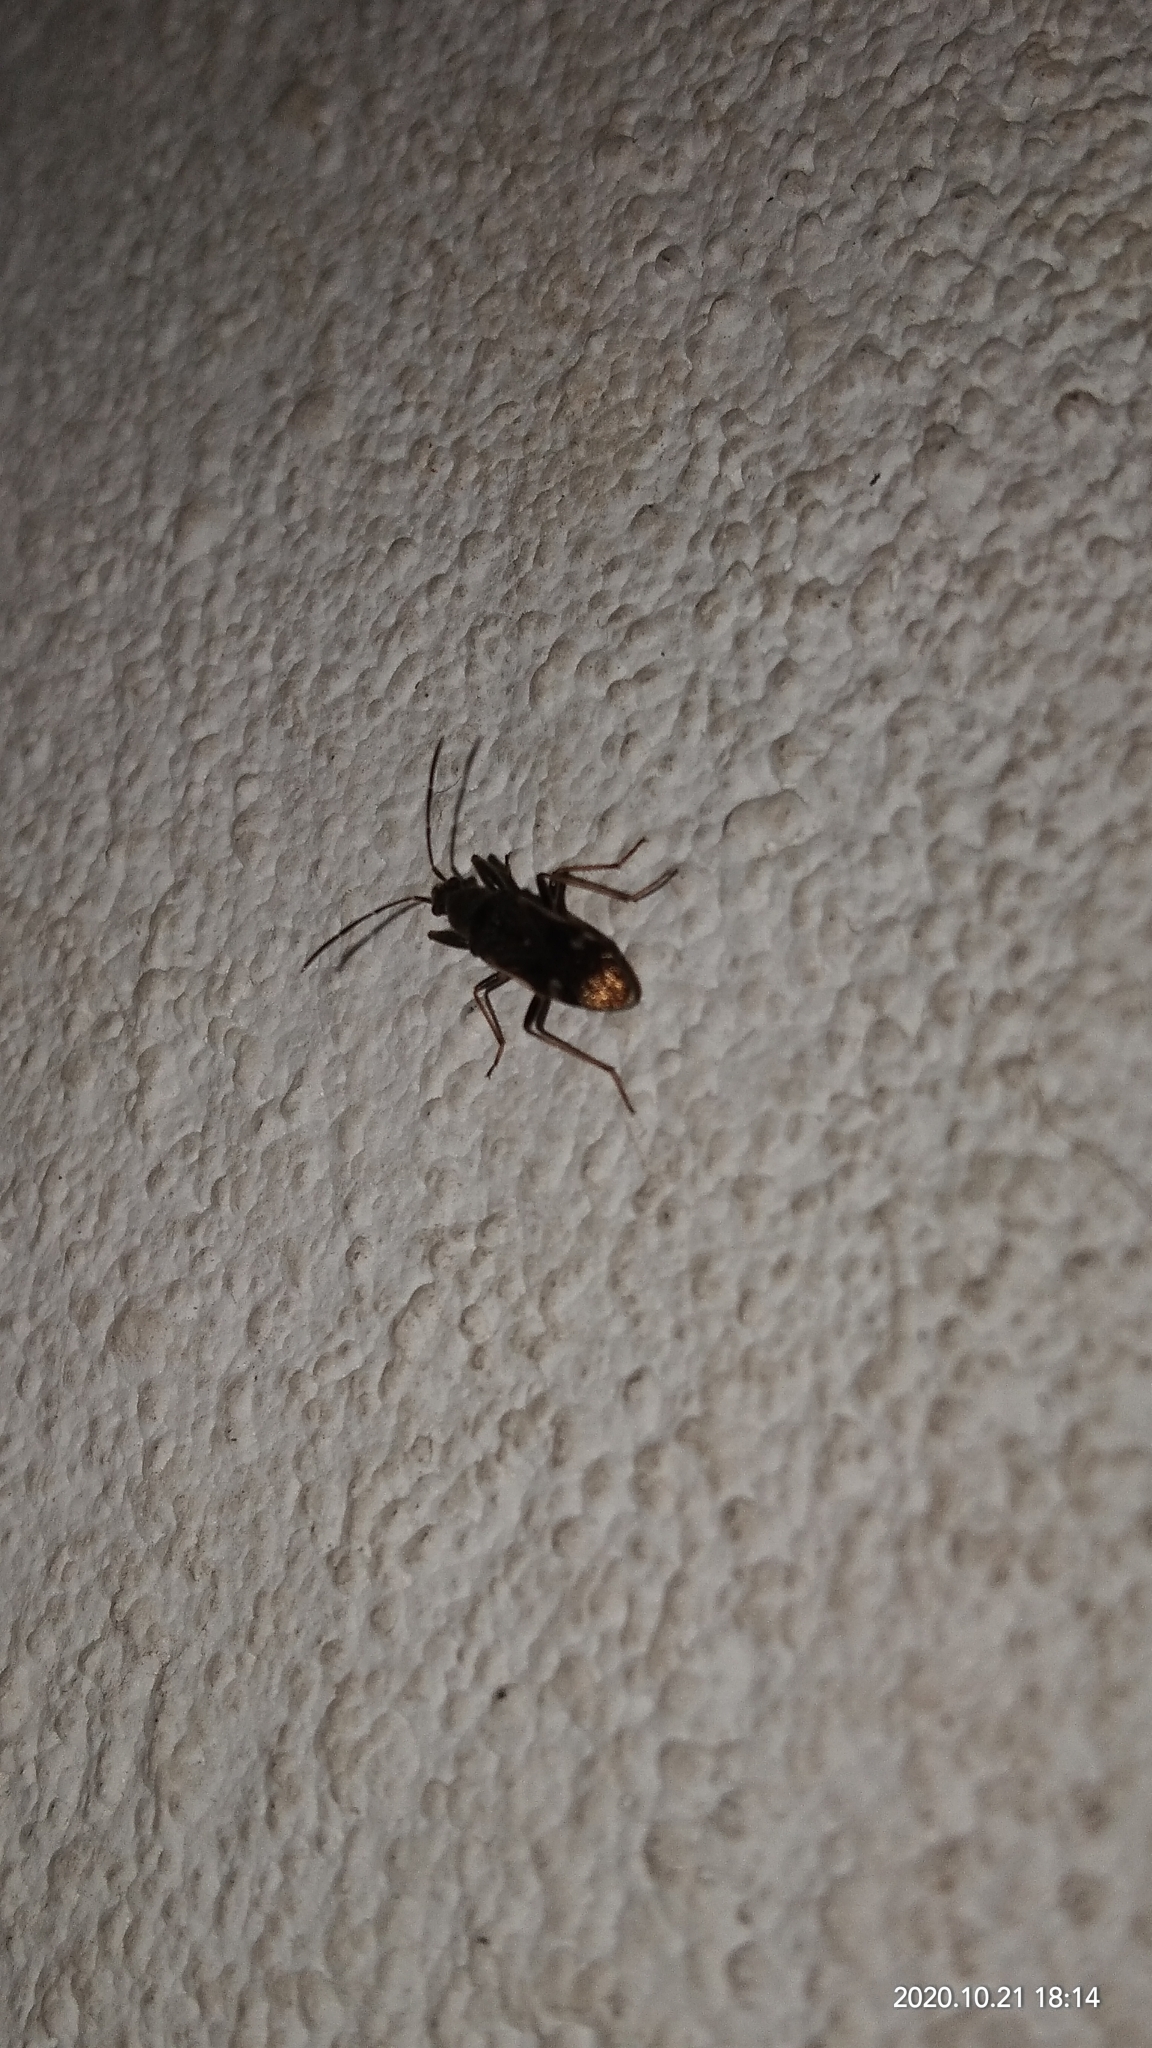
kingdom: Animalia
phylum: Arthropoda
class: Insecta
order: Hemiptera
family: Rhyparochromidae
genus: Horridipamera
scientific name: Horridipamera nietneri
